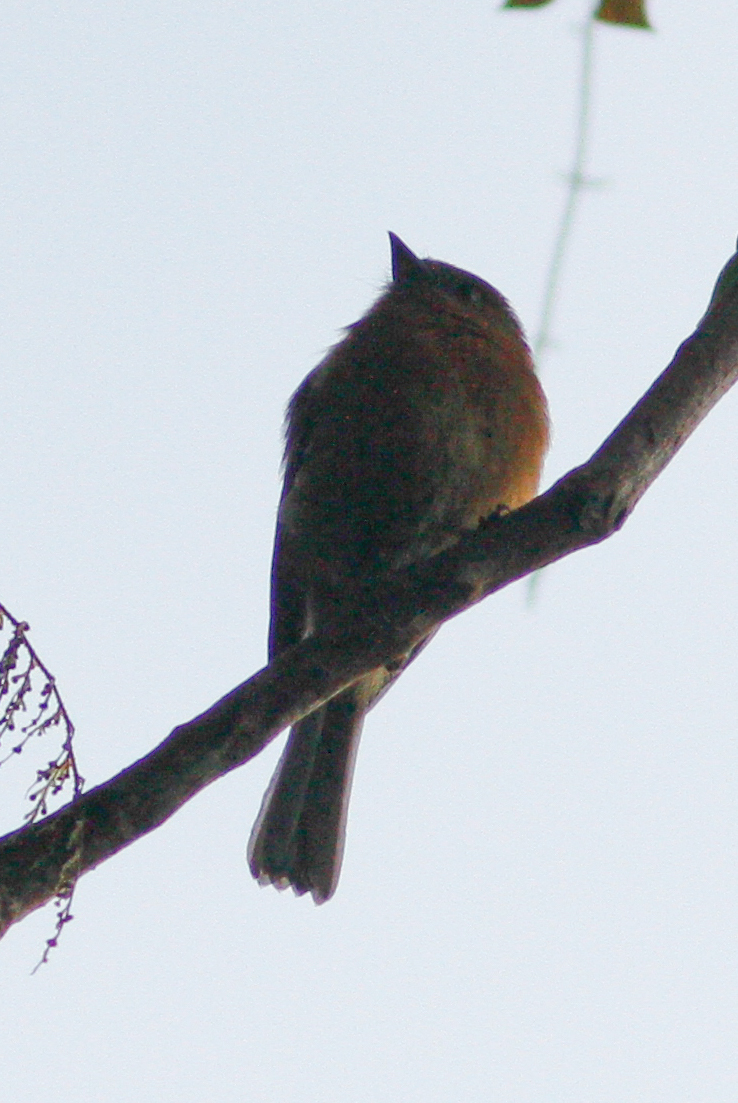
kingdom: Animalia
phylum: Chordata
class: Aves
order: Passeriformes
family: Tyrannidae
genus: Pyrrhomyias
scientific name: Pyrrhomyias cinnamomeus
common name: Cinnamon flycatcher
